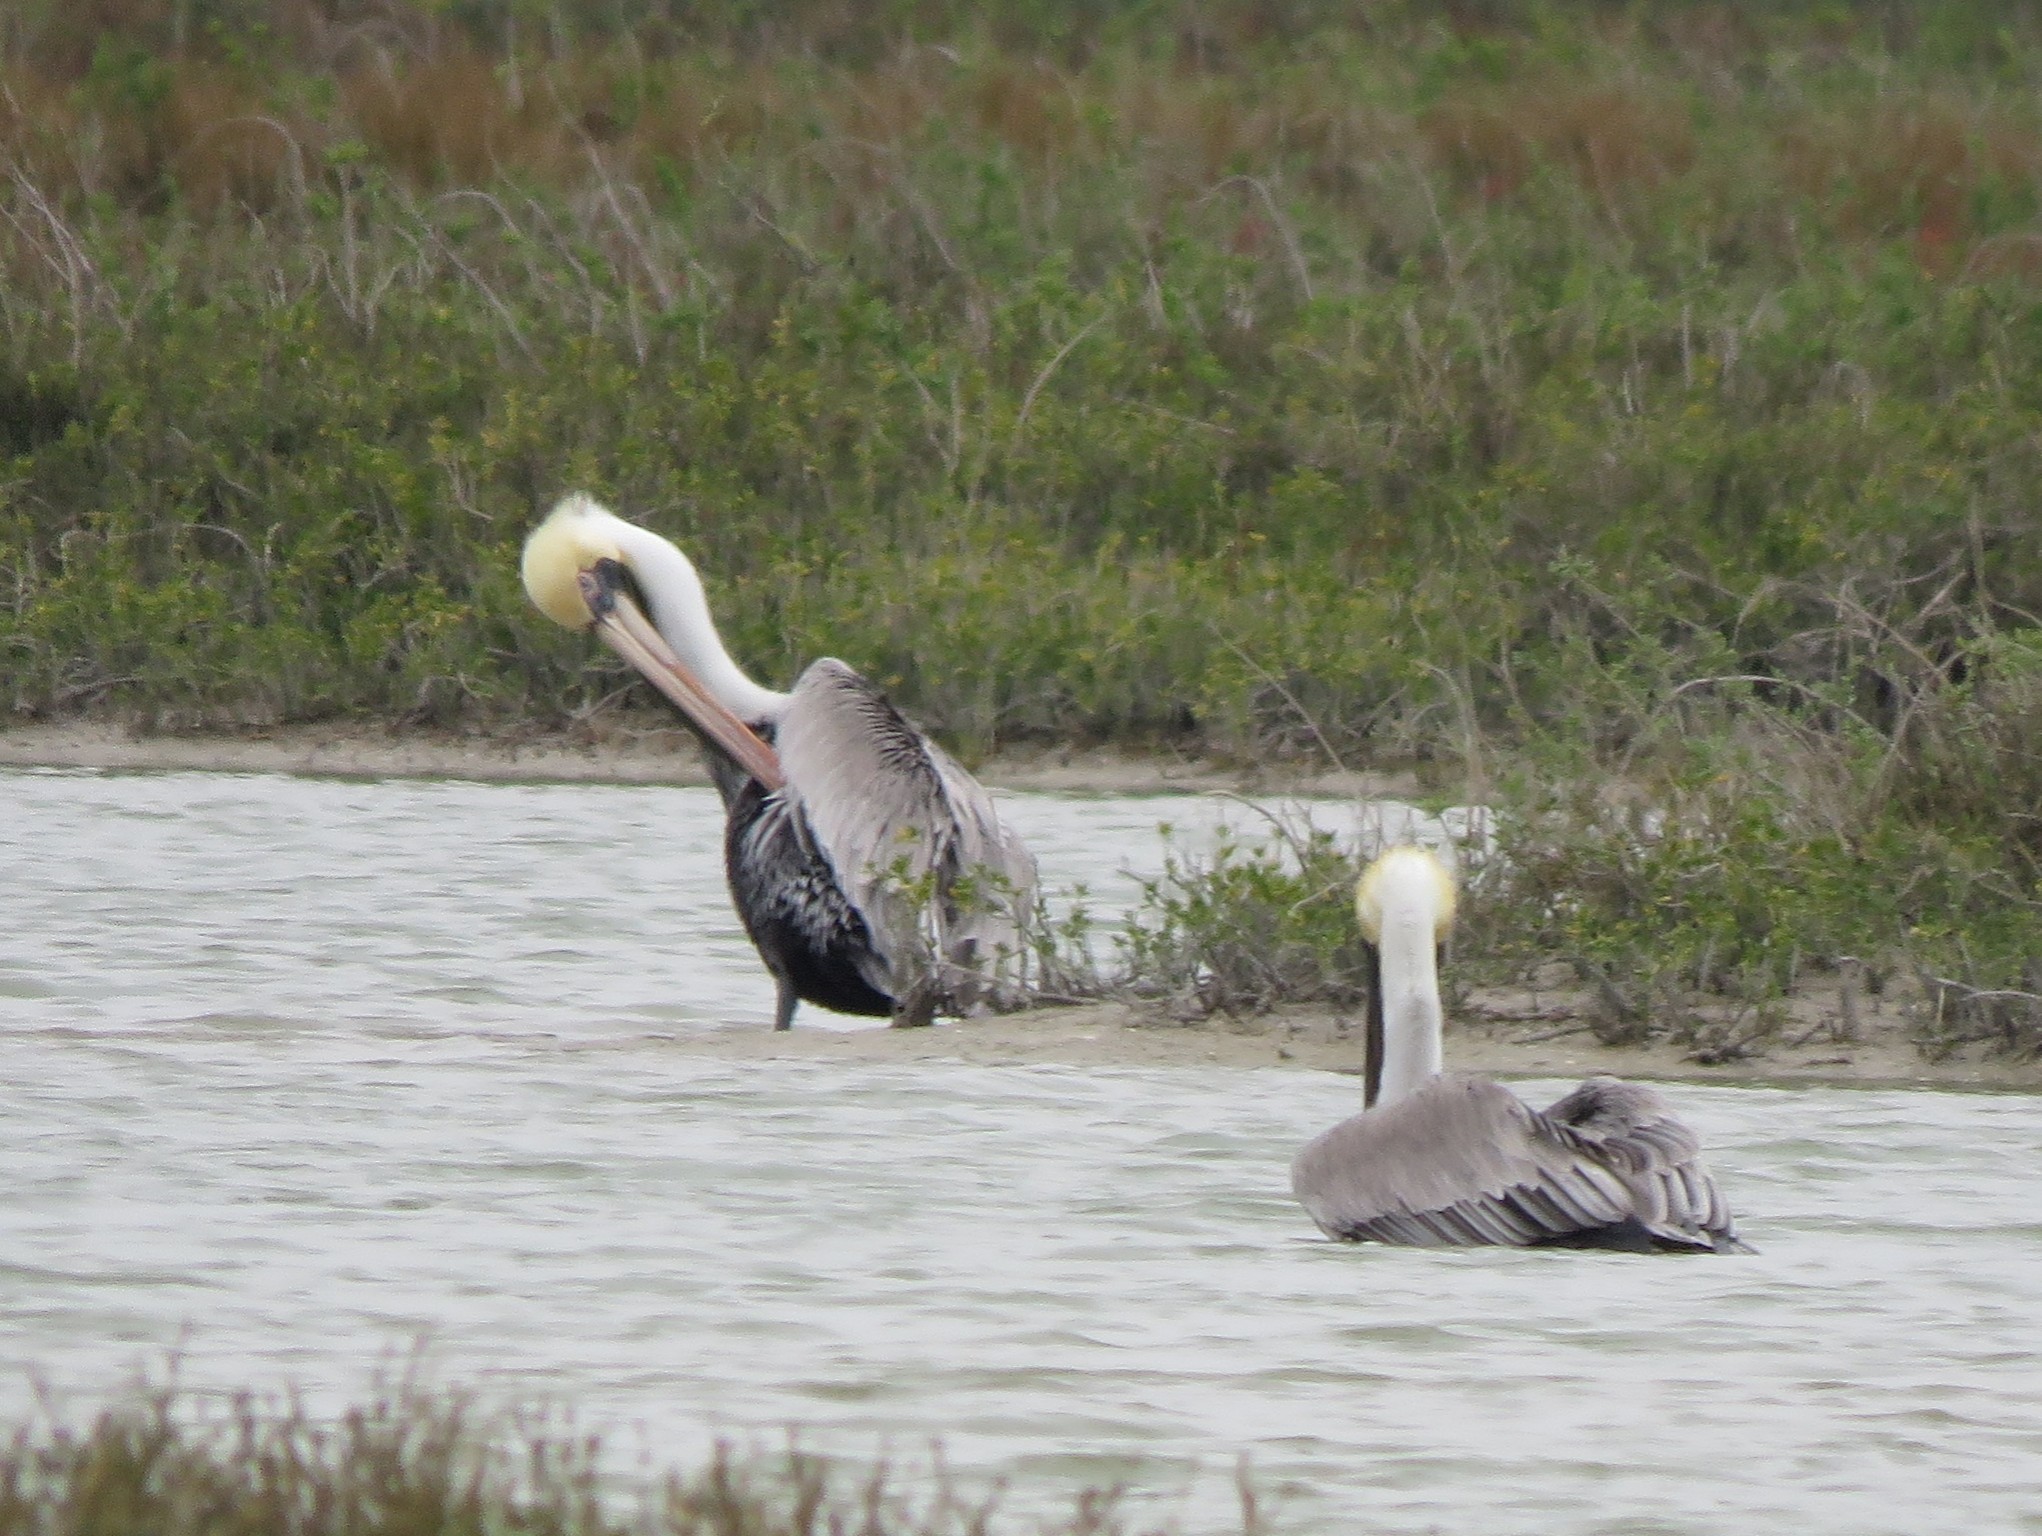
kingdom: Animalia
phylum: Chordata
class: Aves
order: Pelecaniformes
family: Pelecanidae
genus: Pelecanus
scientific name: Pelecanus occidentalis
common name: Brown pelican
